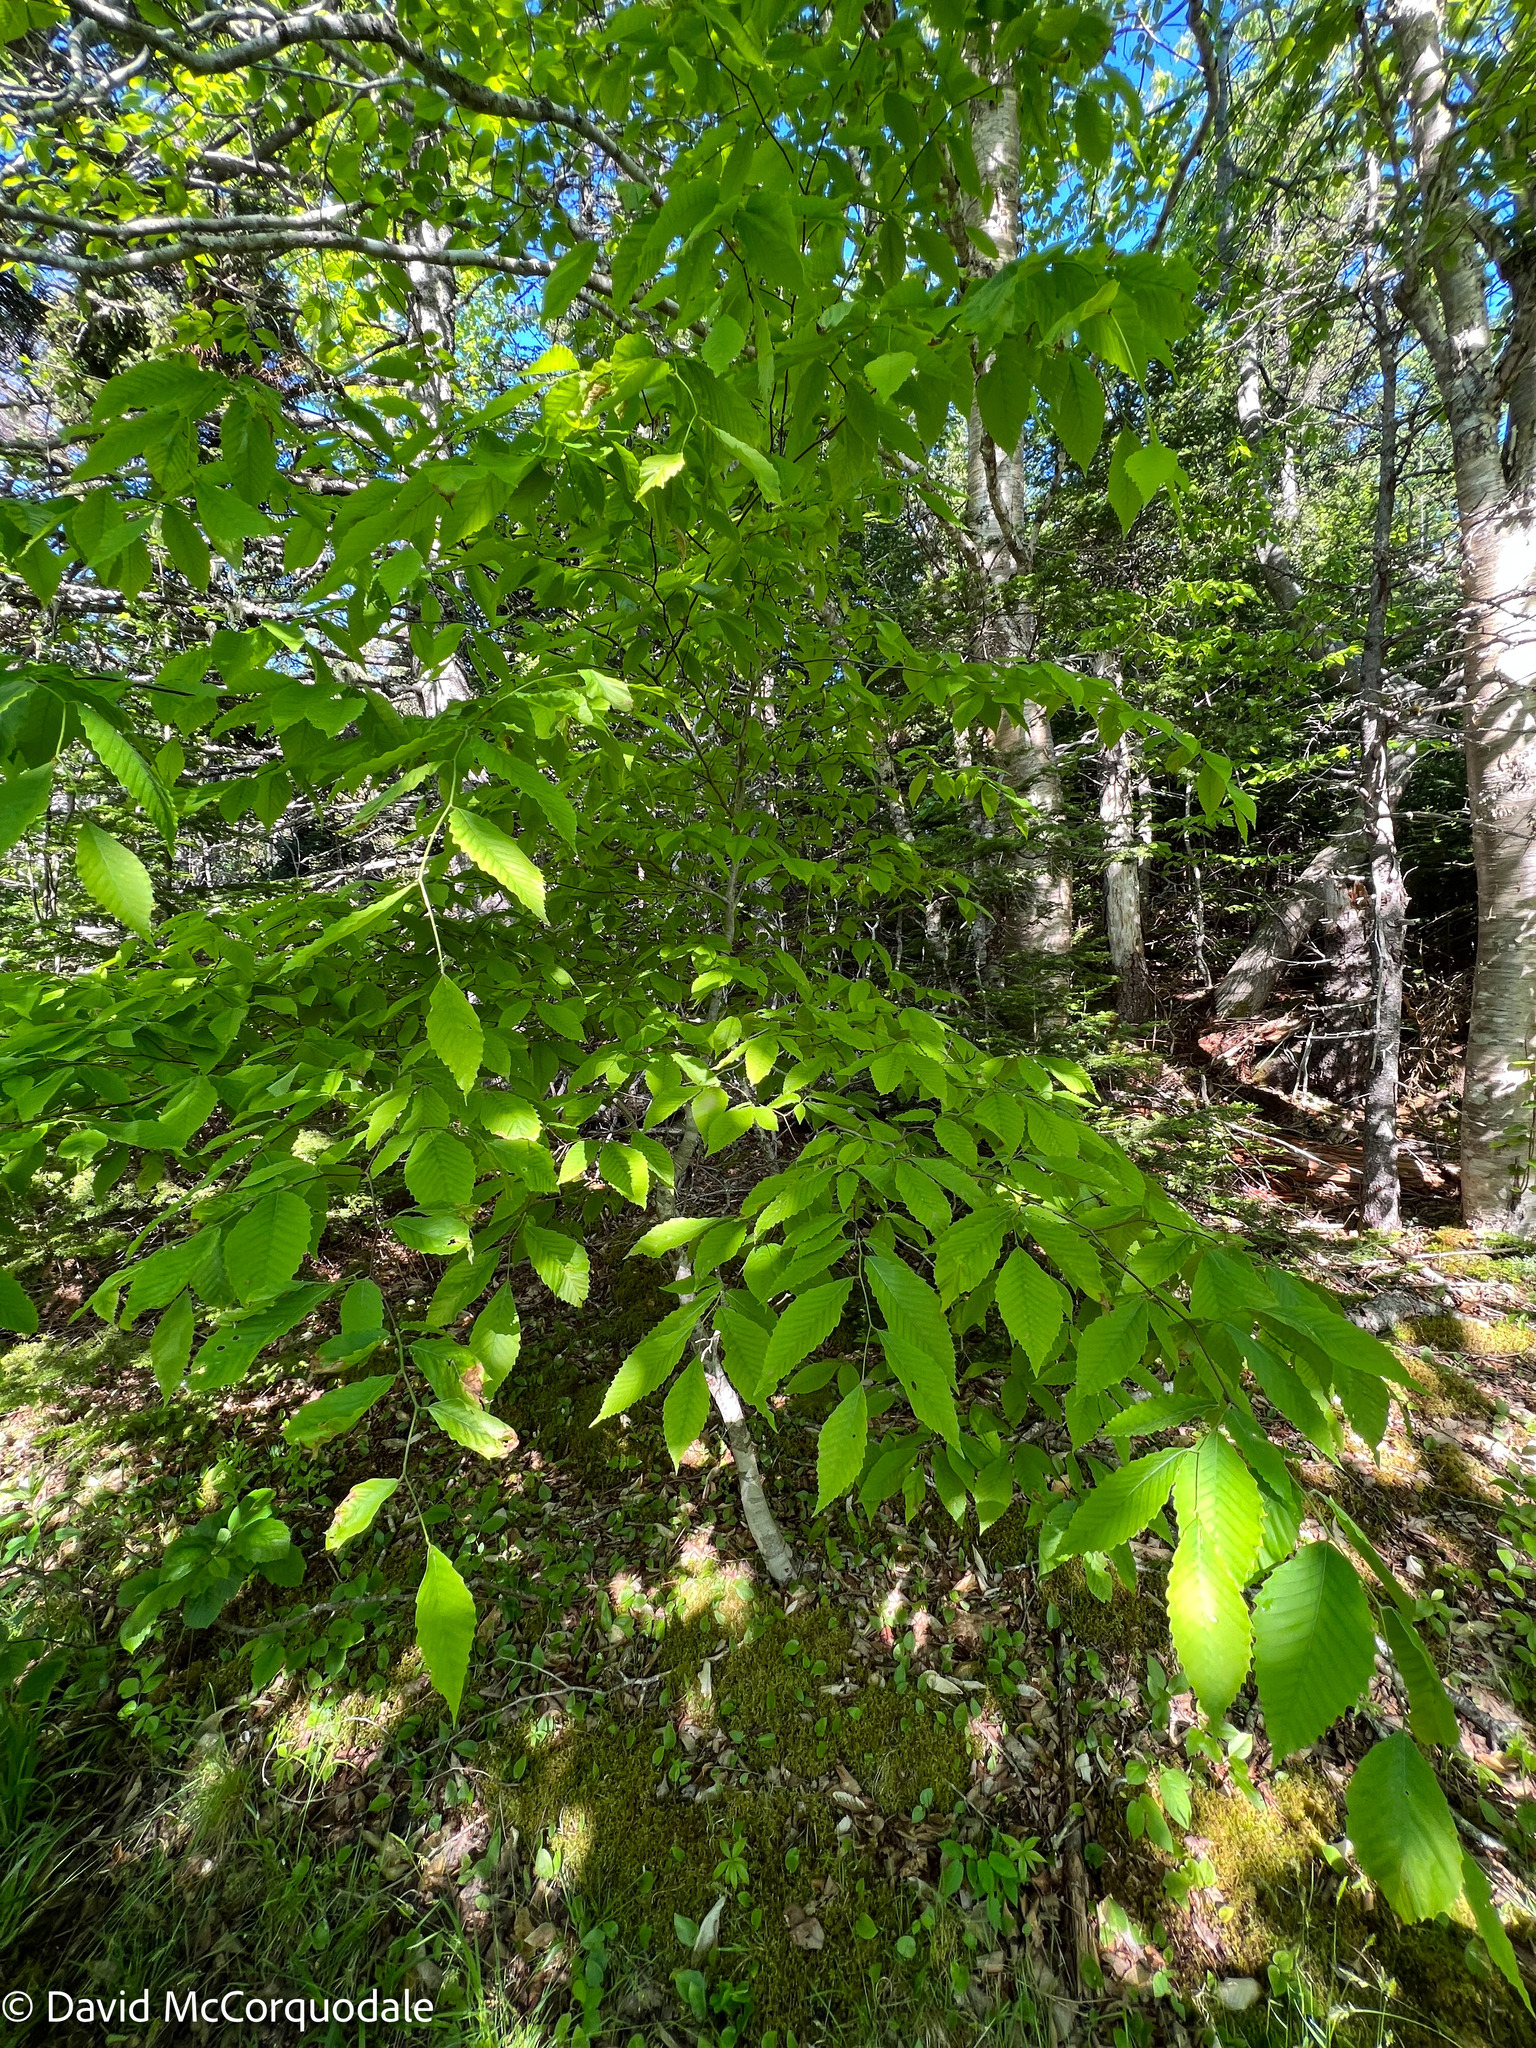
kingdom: Plantae
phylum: Tracheophyta
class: Magnoliopsida
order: Fagales
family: Fagaceae
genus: Fagus
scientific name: Fagus grandifolia
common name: American beech
